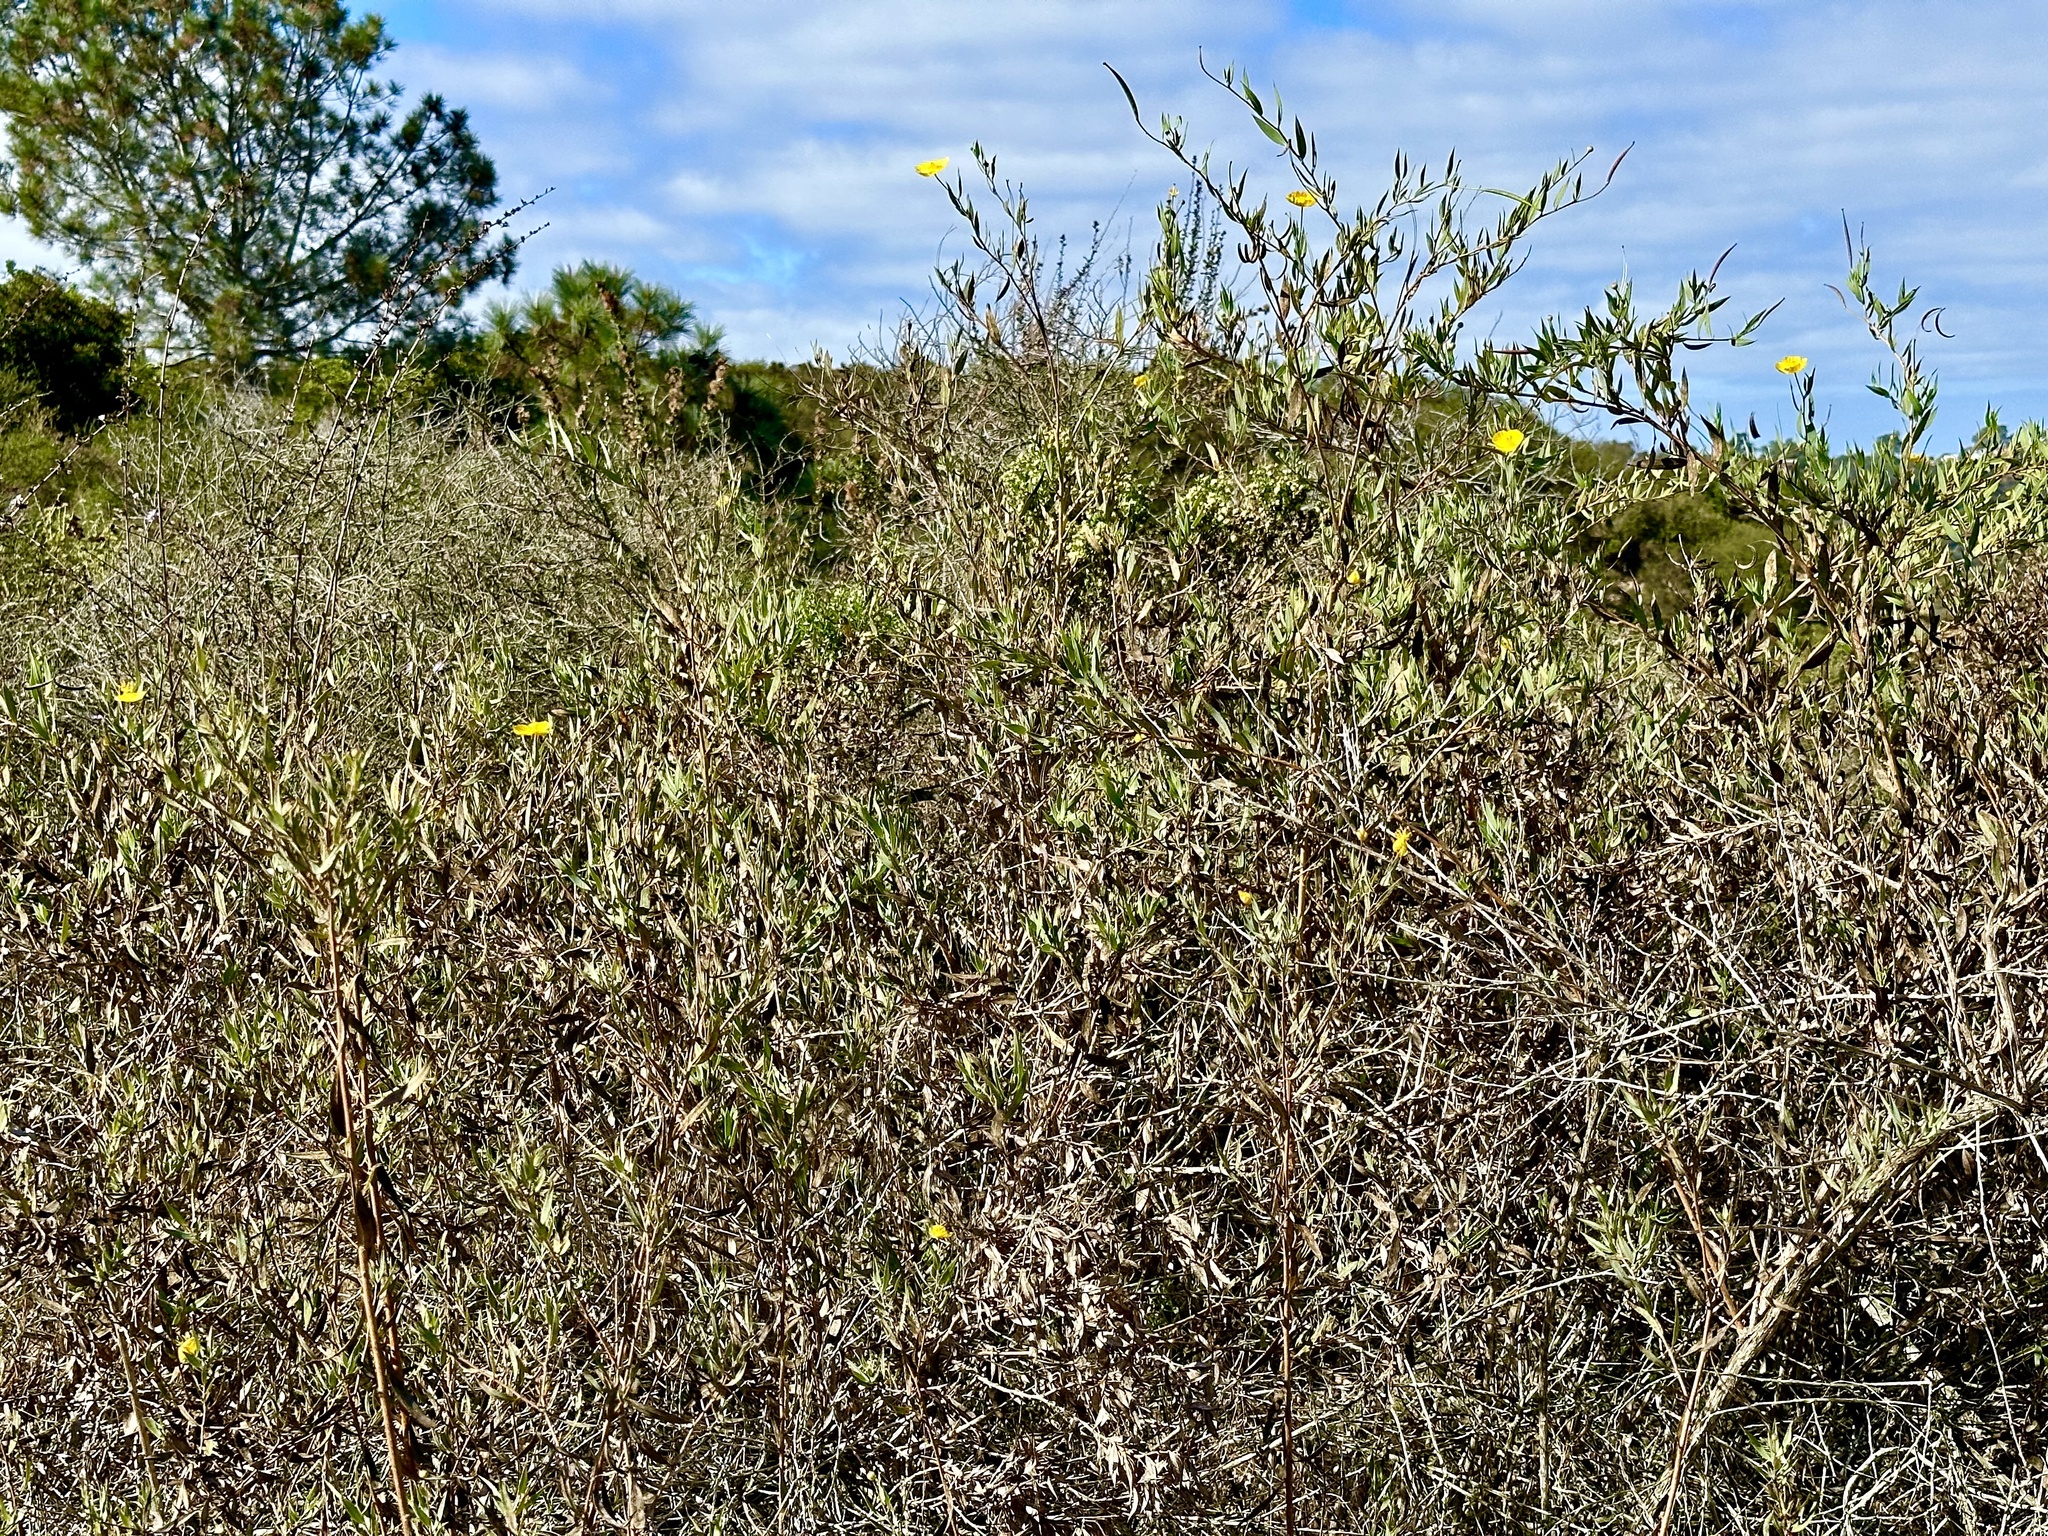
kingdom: Plantae
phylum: Tracheophyta
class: Magnoliopsida
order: Ranunculales
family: Papaveraceae
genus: Dendromecon
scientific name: Dendromecon rigida
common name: Tree poppy
